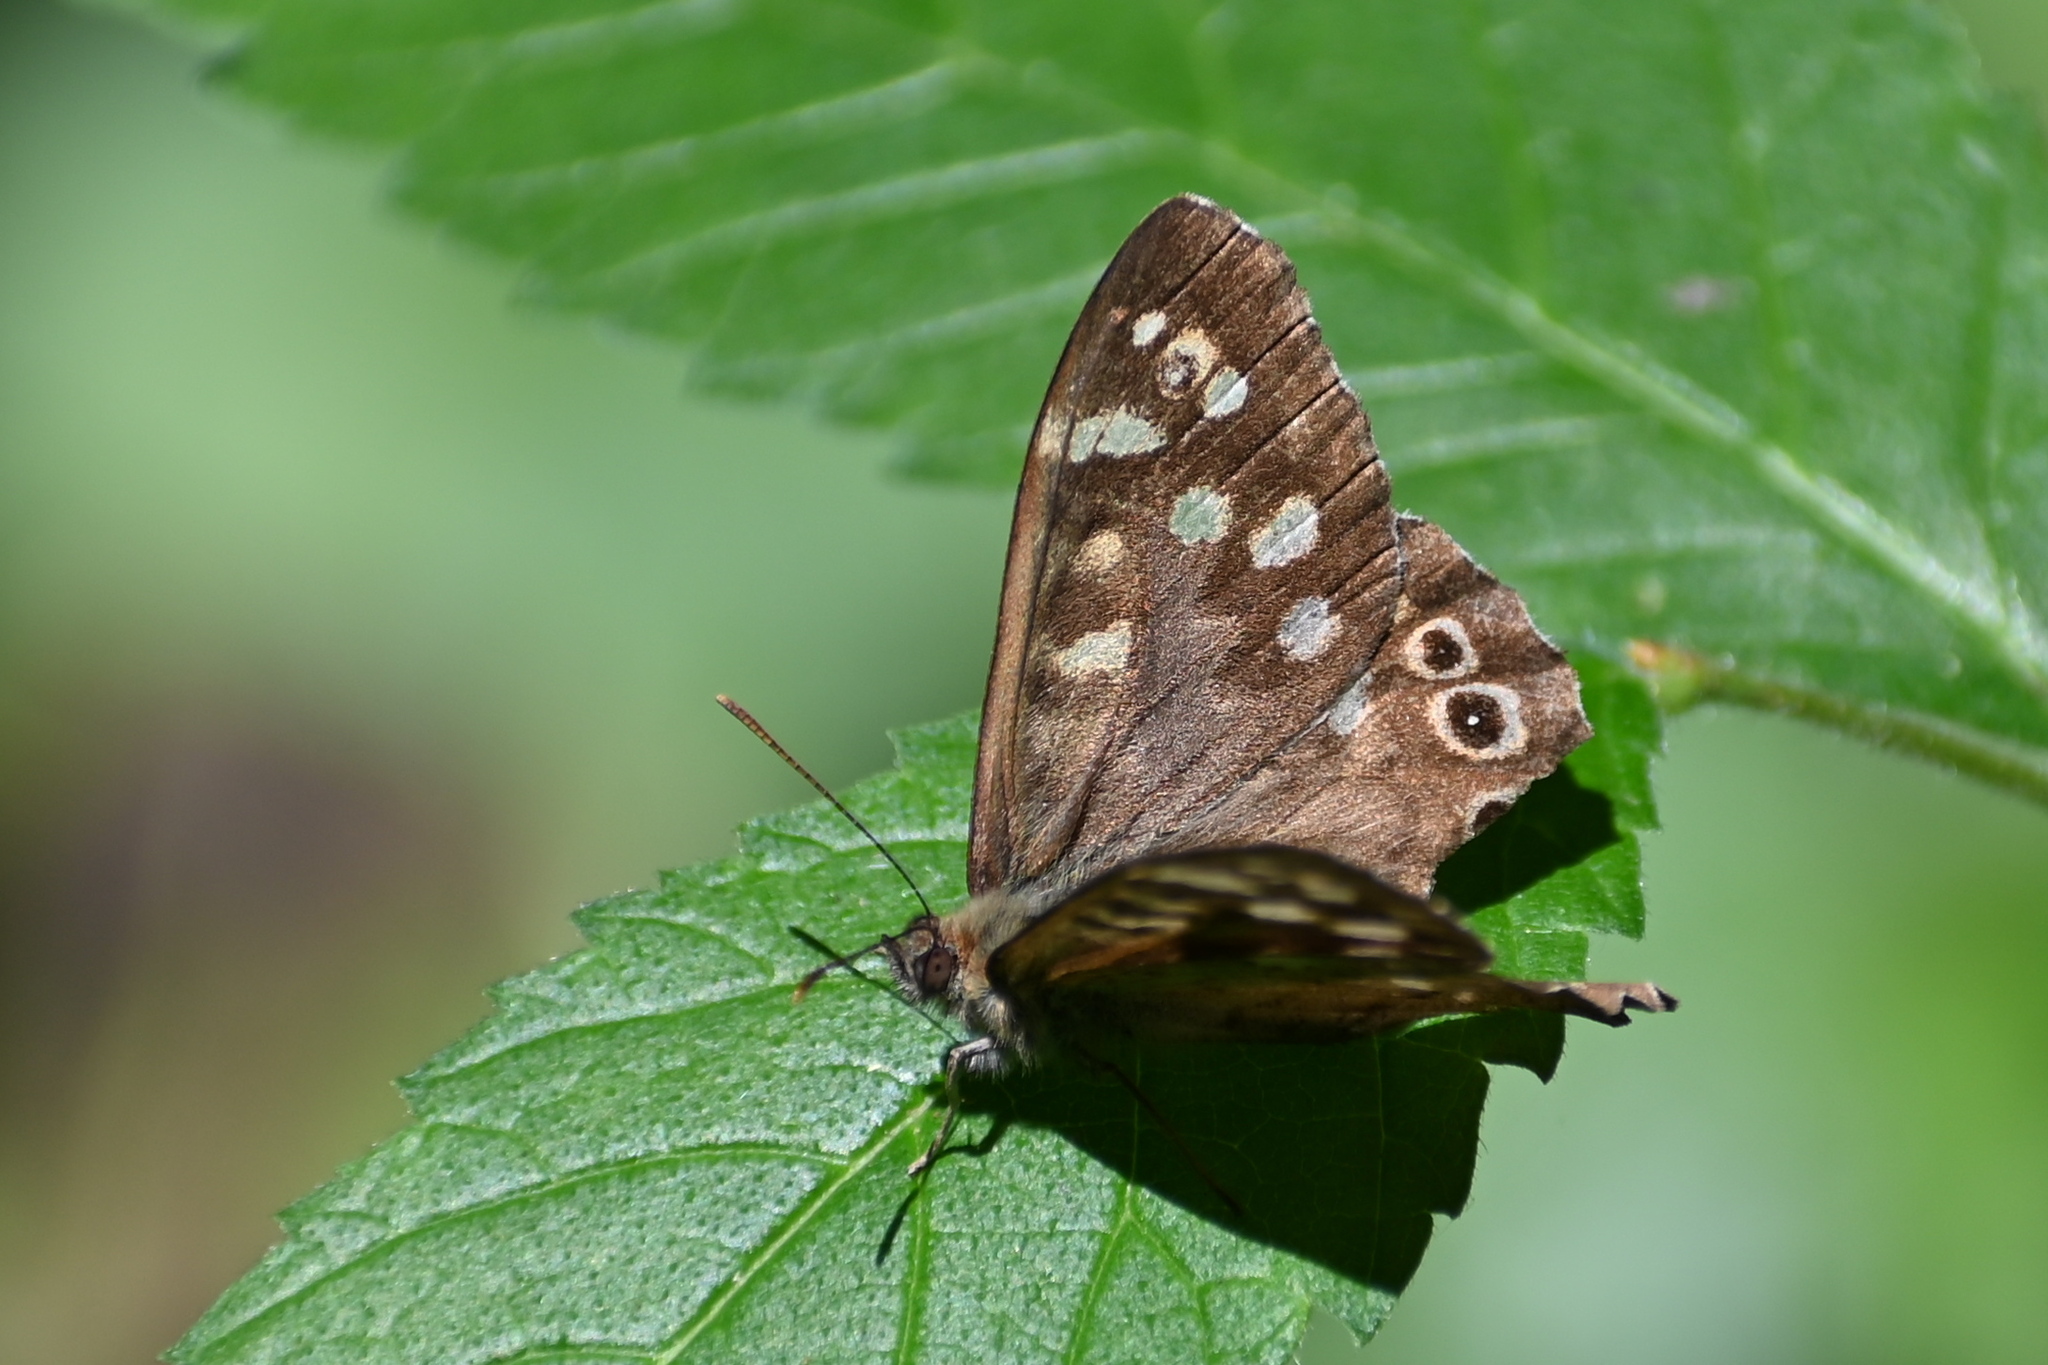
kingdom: Animalia
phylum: Arthropoda
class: Insecta
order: Lepidoptera
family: Nymphalidae
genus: Pararge
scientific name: Pararge aegeria
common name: Speckled wood
